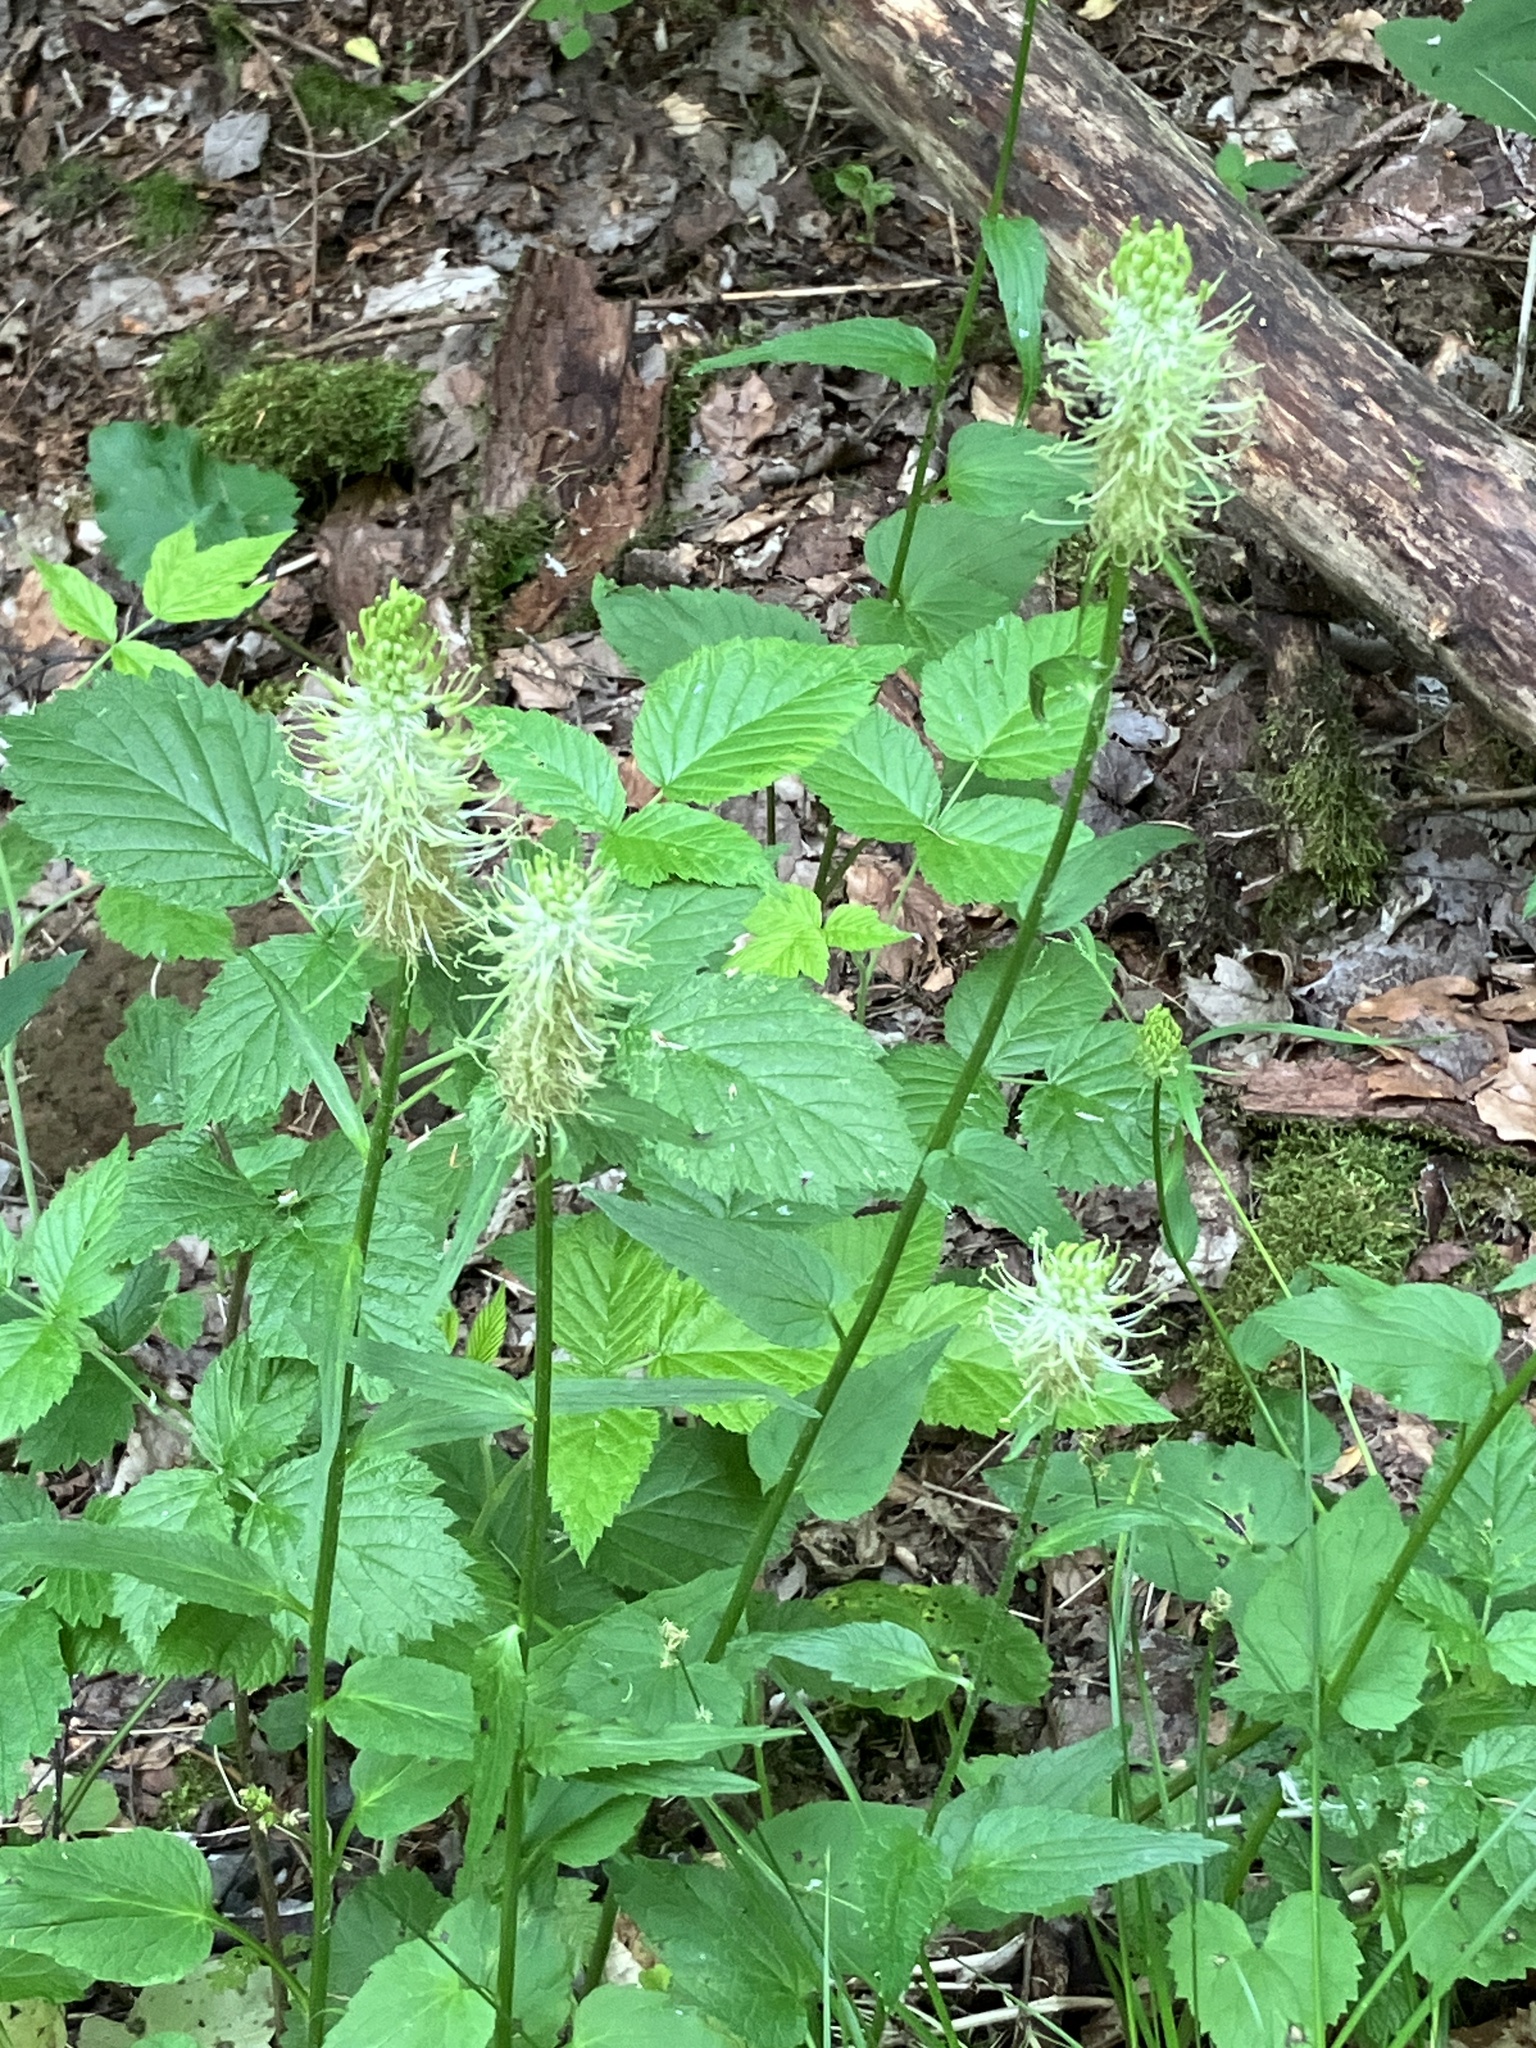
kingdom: Plantae
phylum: Tracheophyta
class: Magnoliopsida
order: Asterales
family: Campanulaceae
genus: Phyteuma
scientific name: Phyteuma spicatum
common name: Spiked rampion
